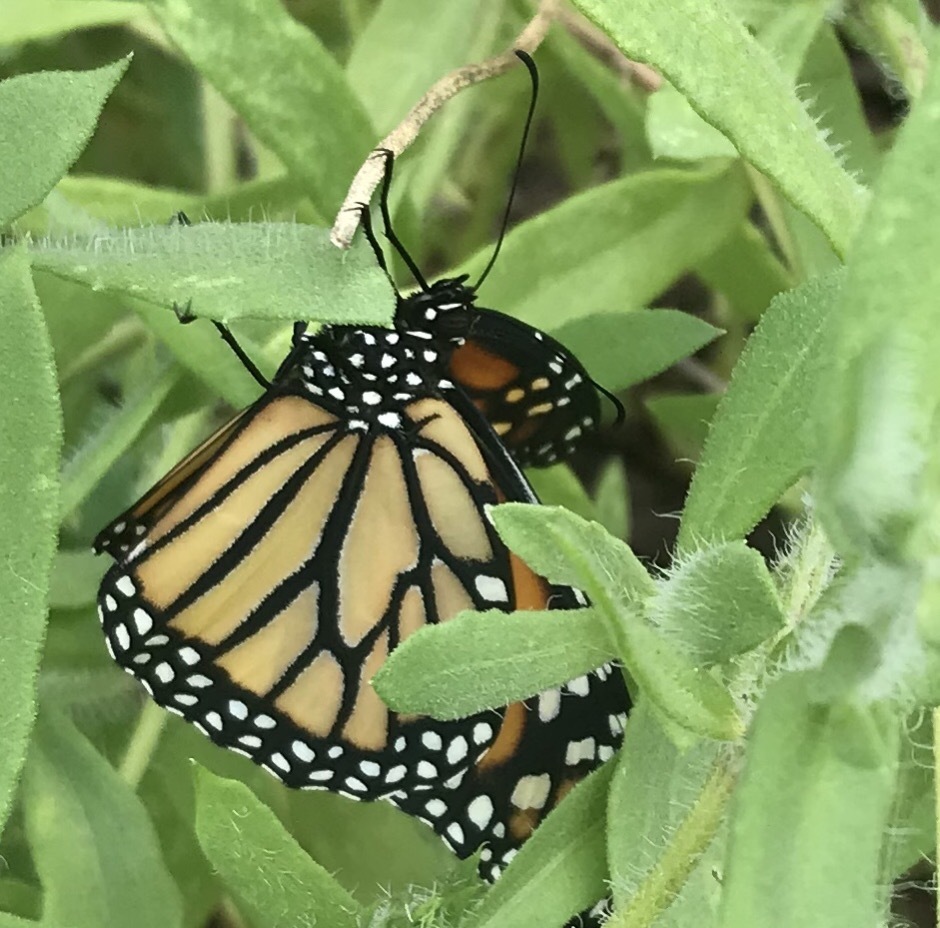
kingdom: Animalia
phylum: Arthropoda
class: Insecta
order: Lepidoptera
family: Nymphalidae
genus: Danaus
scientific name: Danaus plexippus
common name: Monarch
